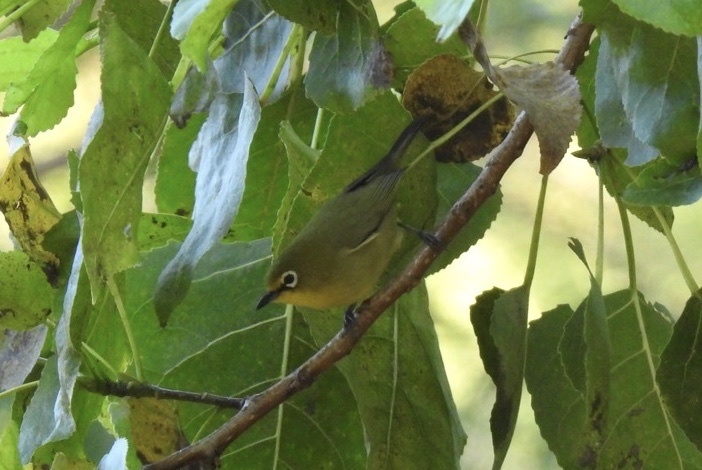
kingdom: Animalia
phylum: Chordata
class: Aves
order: Passeriformes
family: Zosteropidae
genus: Zosterops
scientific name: Zosterops virens
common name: Cape white-eye
